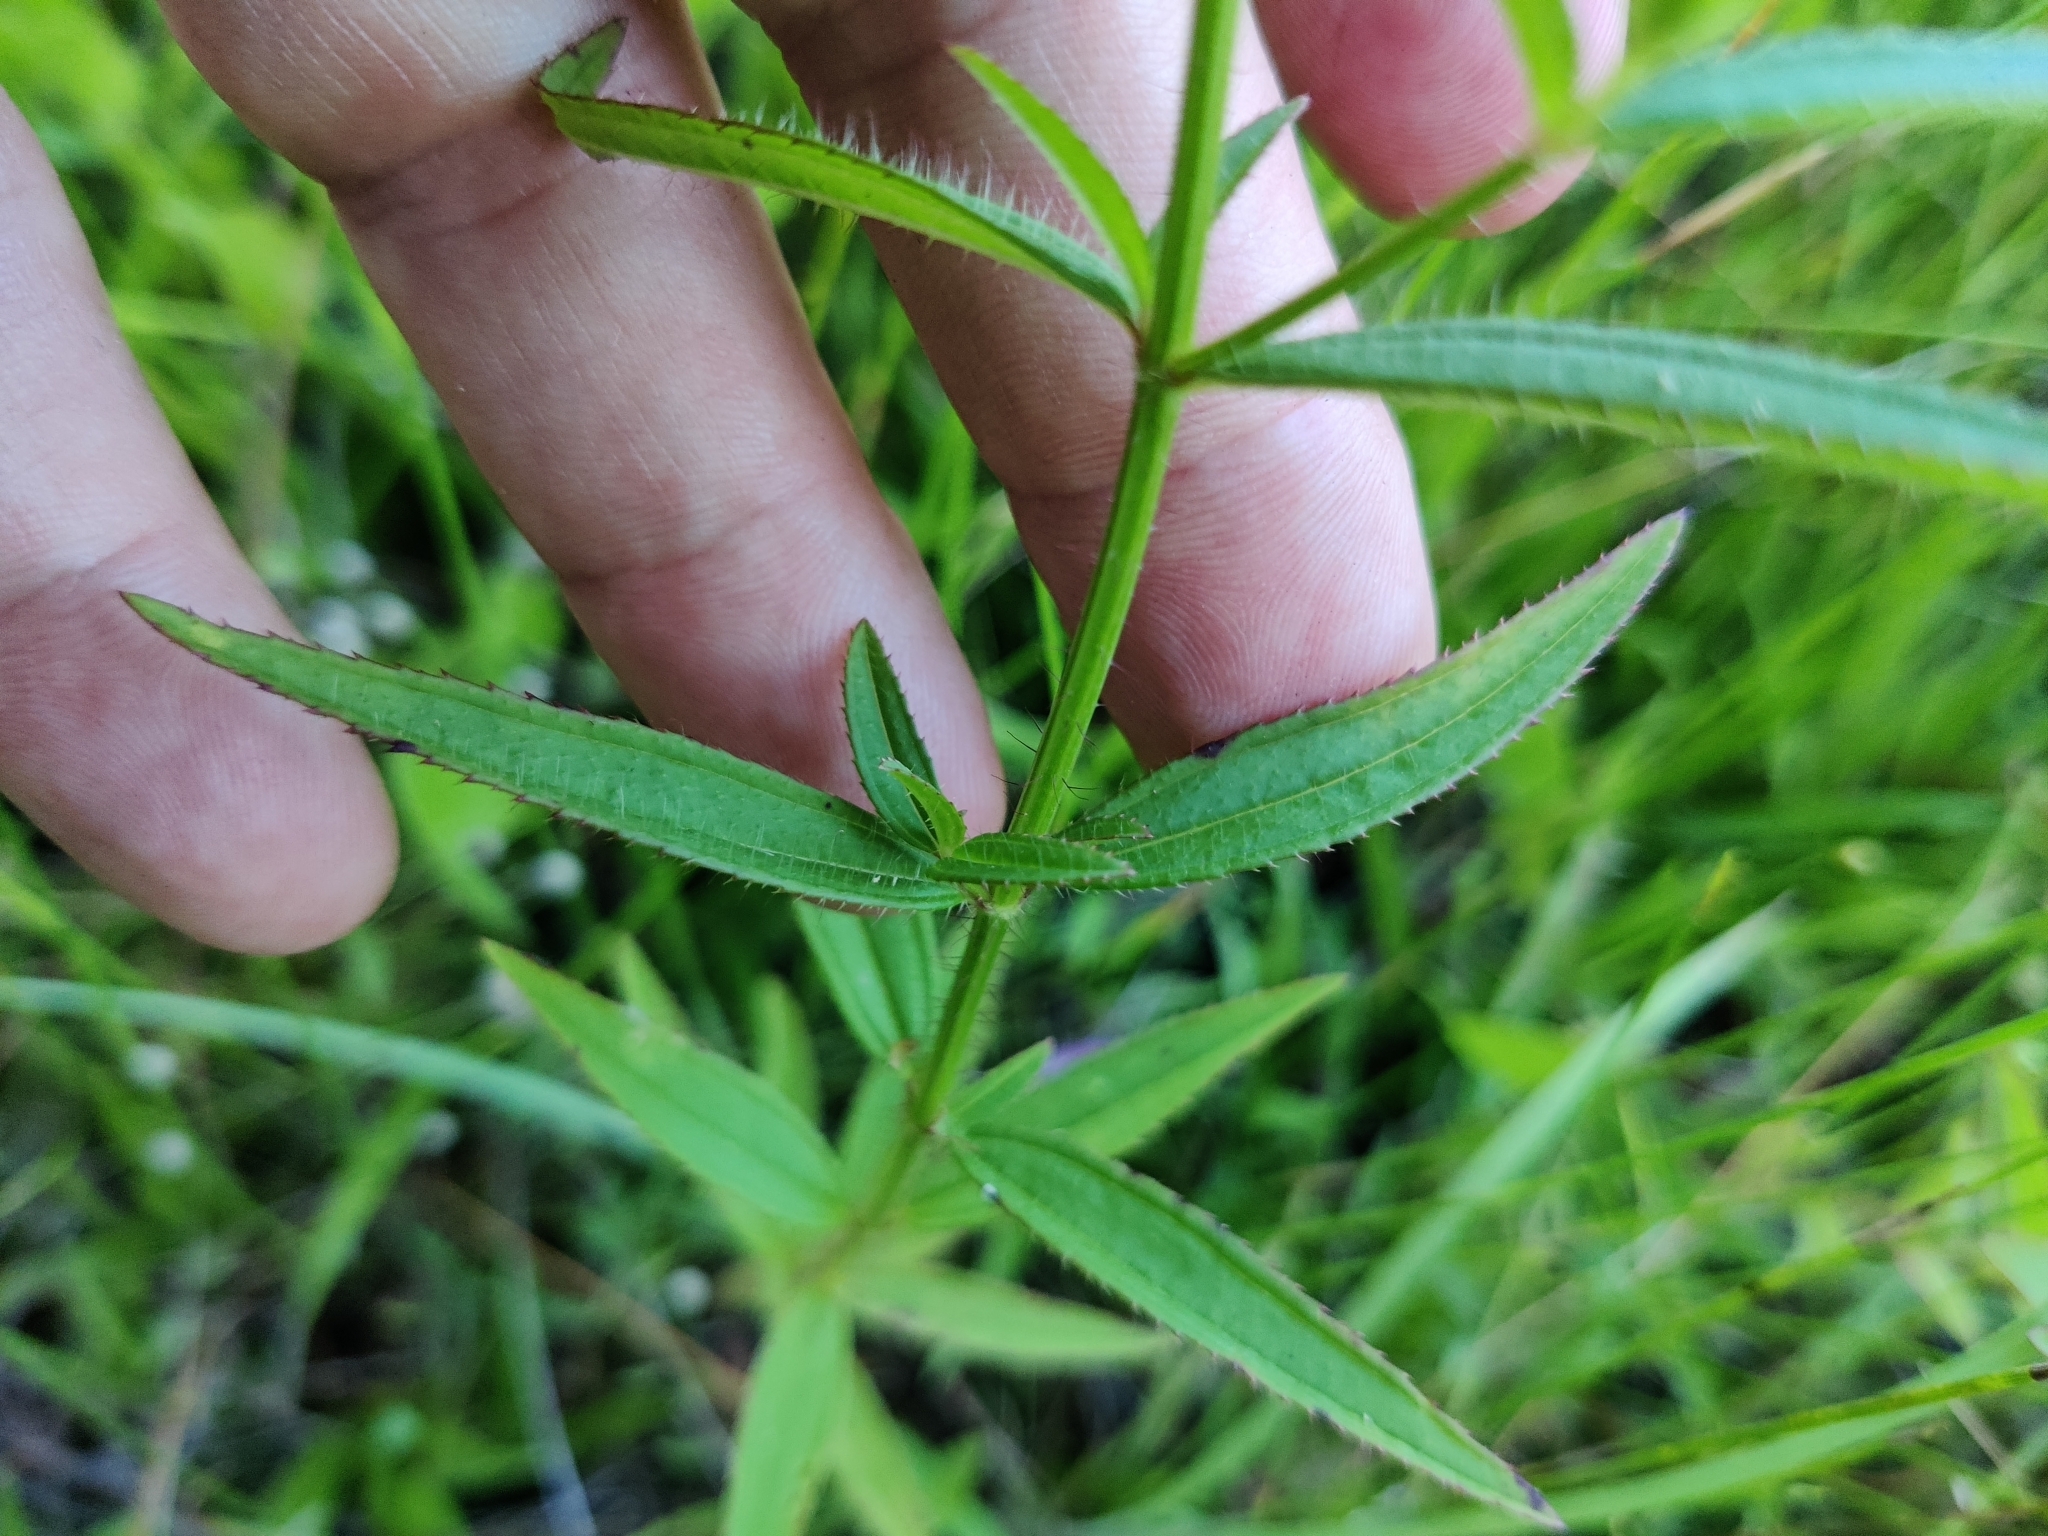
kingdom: Plantae
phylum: Tracheophyta
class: Magnoliopsida
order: Myrtales
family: Melastomataceae
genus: Rhexia
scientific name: Rhexia nashii
